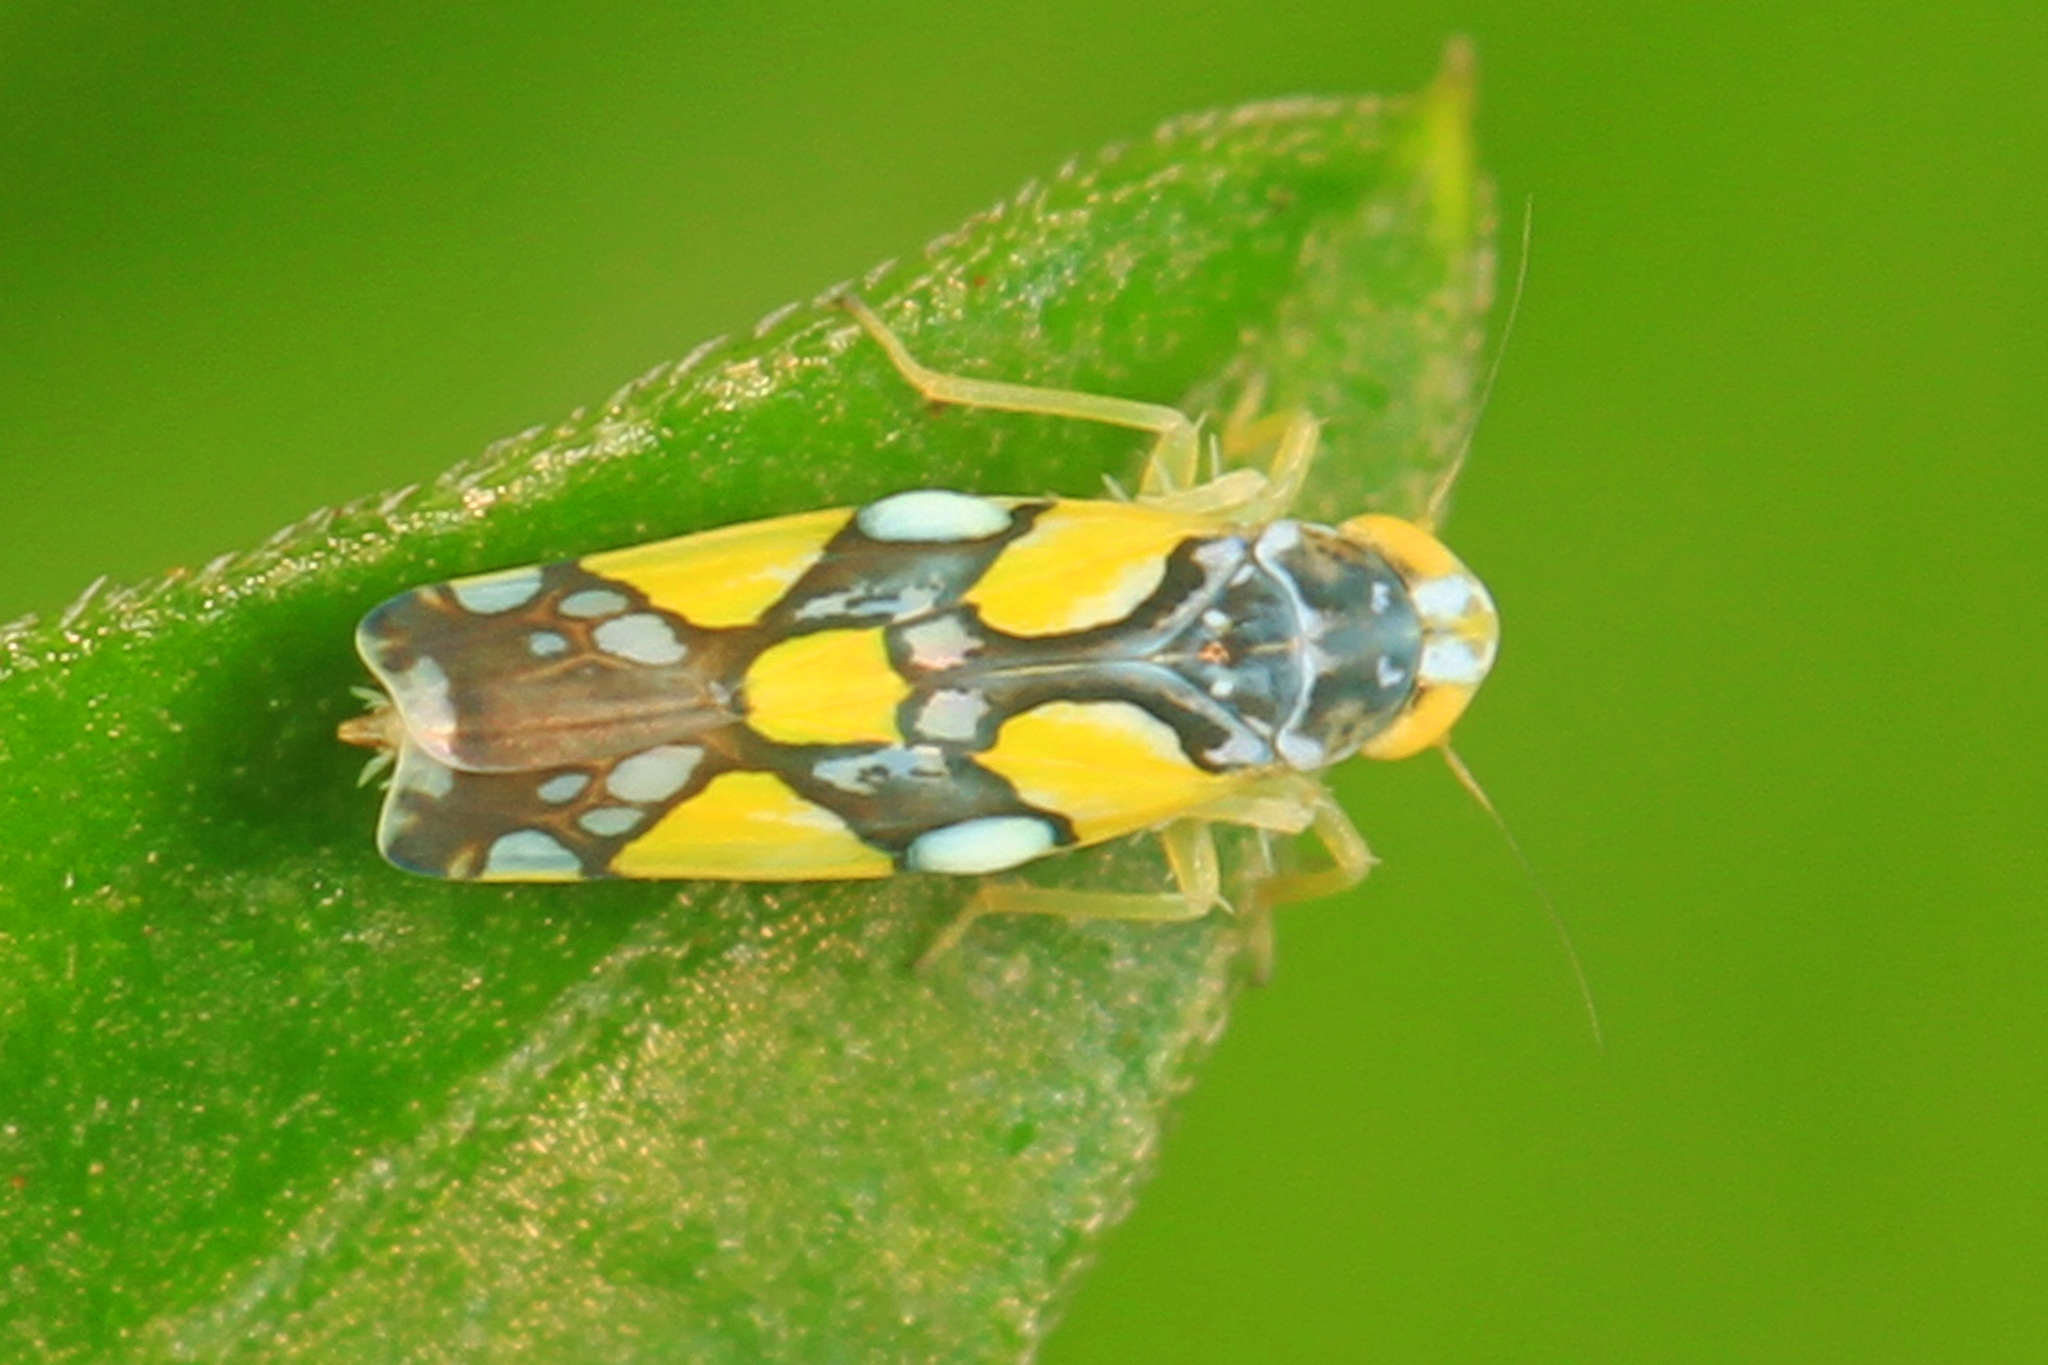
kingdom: Animalia
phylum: Arthropoda
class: Insecta
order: Hemiptera
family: Cicadellidae
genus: Protalebrella
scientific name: Protalebrella brasiliensis
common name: Brasilian leafhopper
